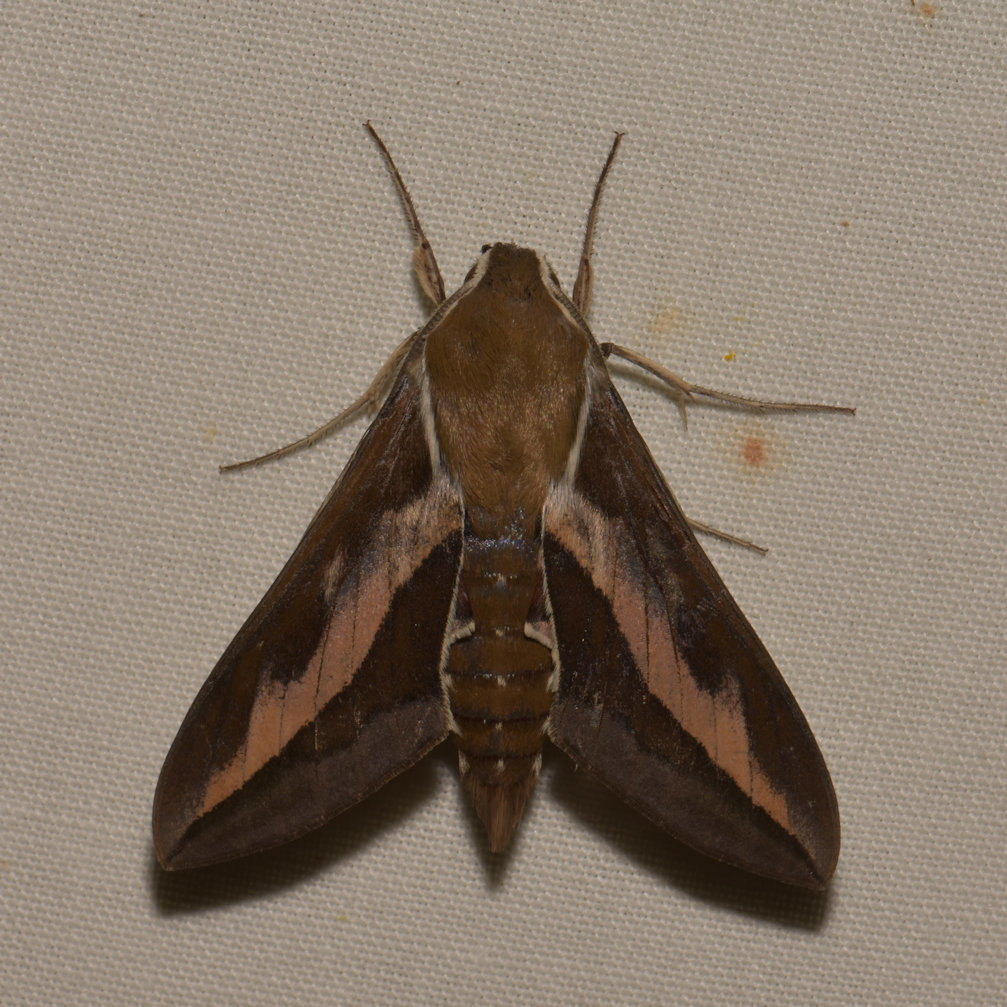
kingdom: Animalia
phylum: Arthropoda
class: Insecta
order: Lepidoptera
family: Sphingidae
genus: Hyles
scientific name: Hyles gallii
